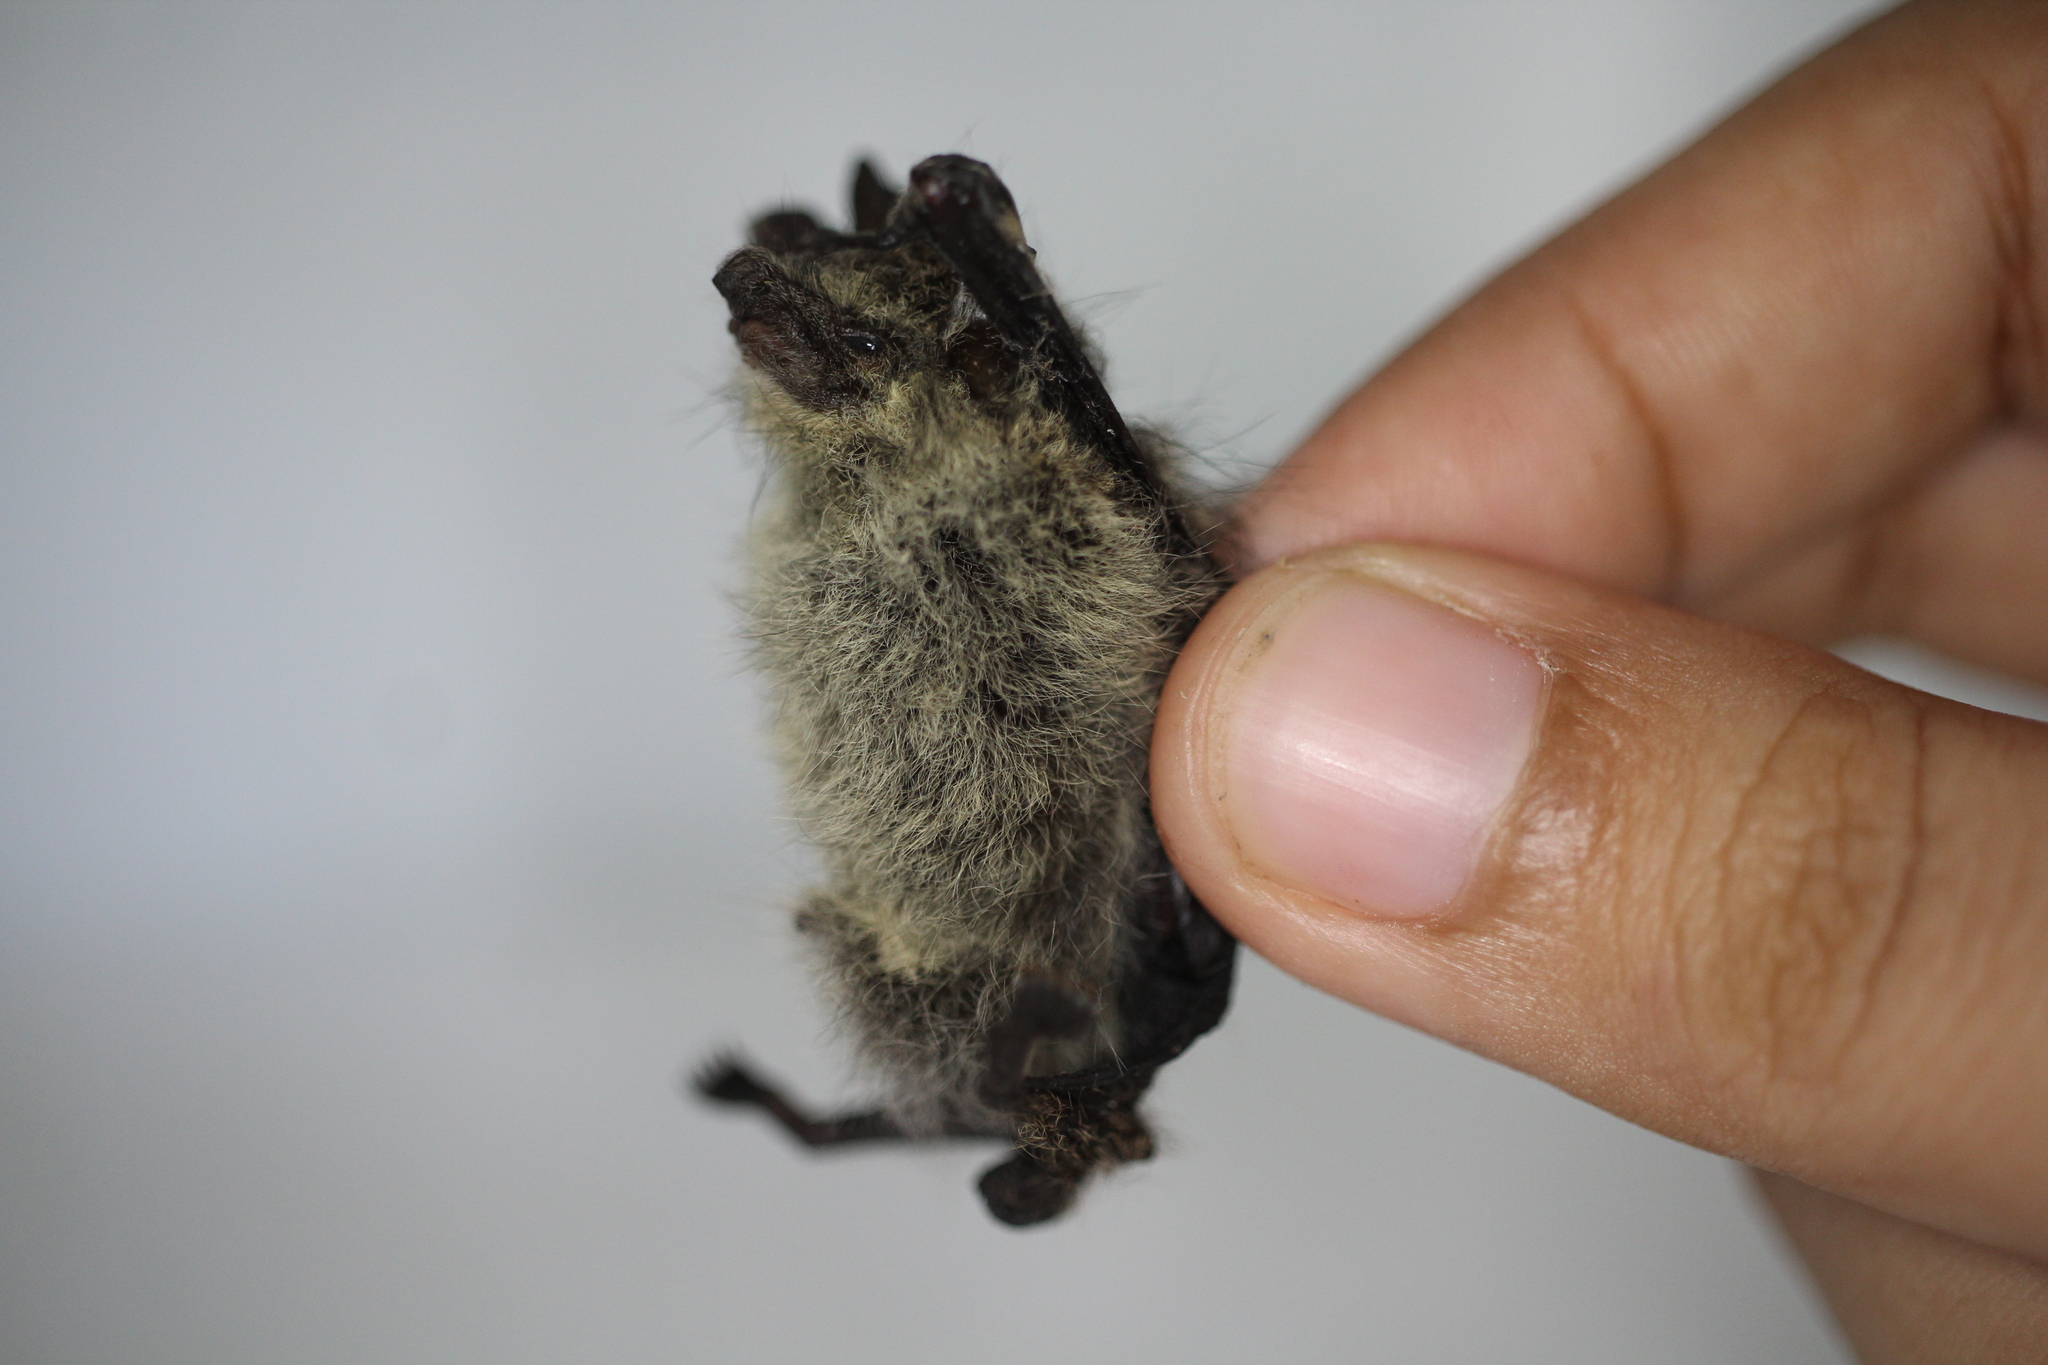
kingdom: Animalia
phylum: Chordata
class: Mammalia
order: Chiroptera
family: Emballonuridae
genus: Rhynchonycteris
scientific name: Rhynchonycteris naso
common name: Proboscis bat
